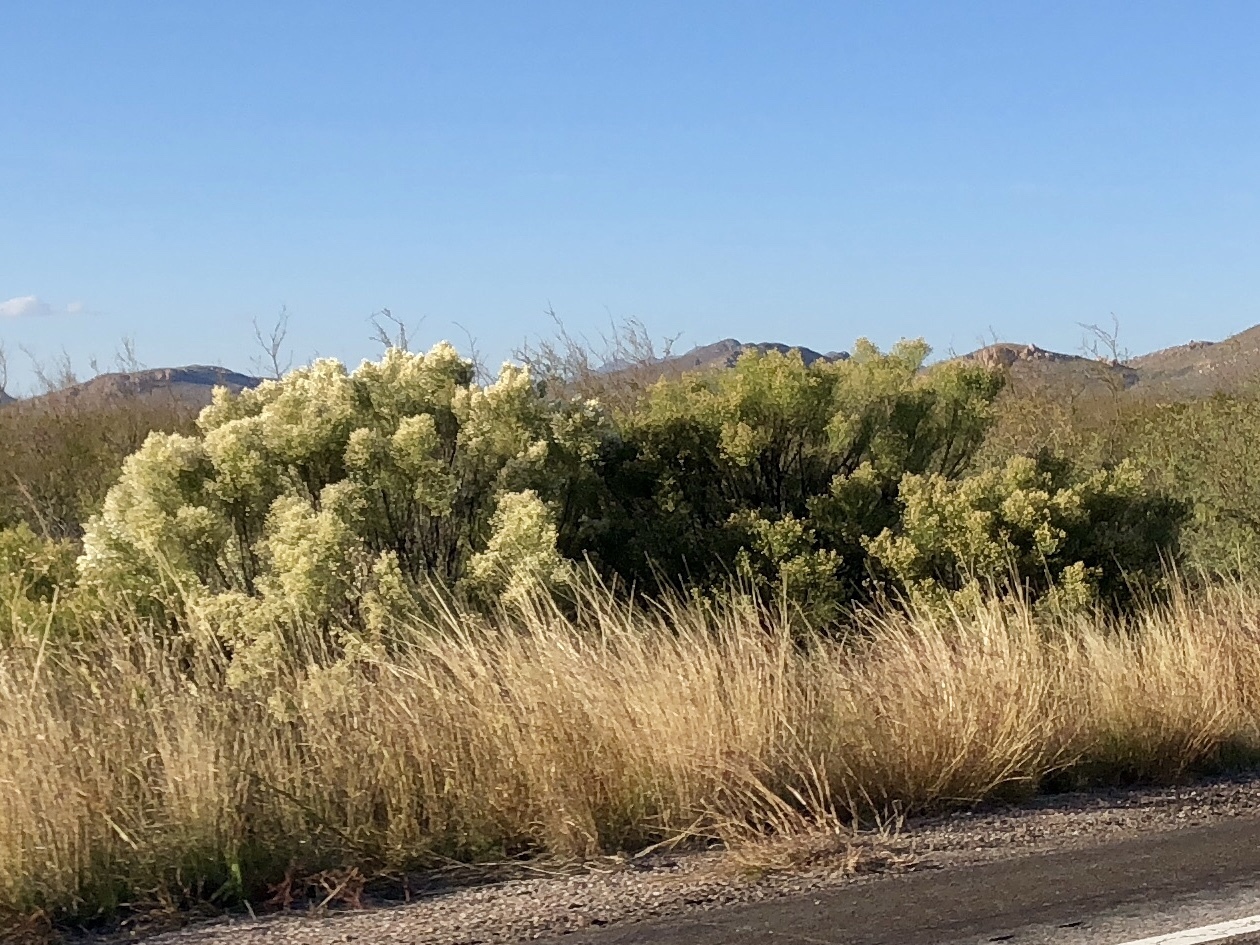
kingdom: Plantae
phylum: Tracheophyta
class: Magnoliopsida
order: Asterales
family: Asteraceae
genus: Baccharis
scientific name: Baccharis sarothroides
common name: Desert-broom
